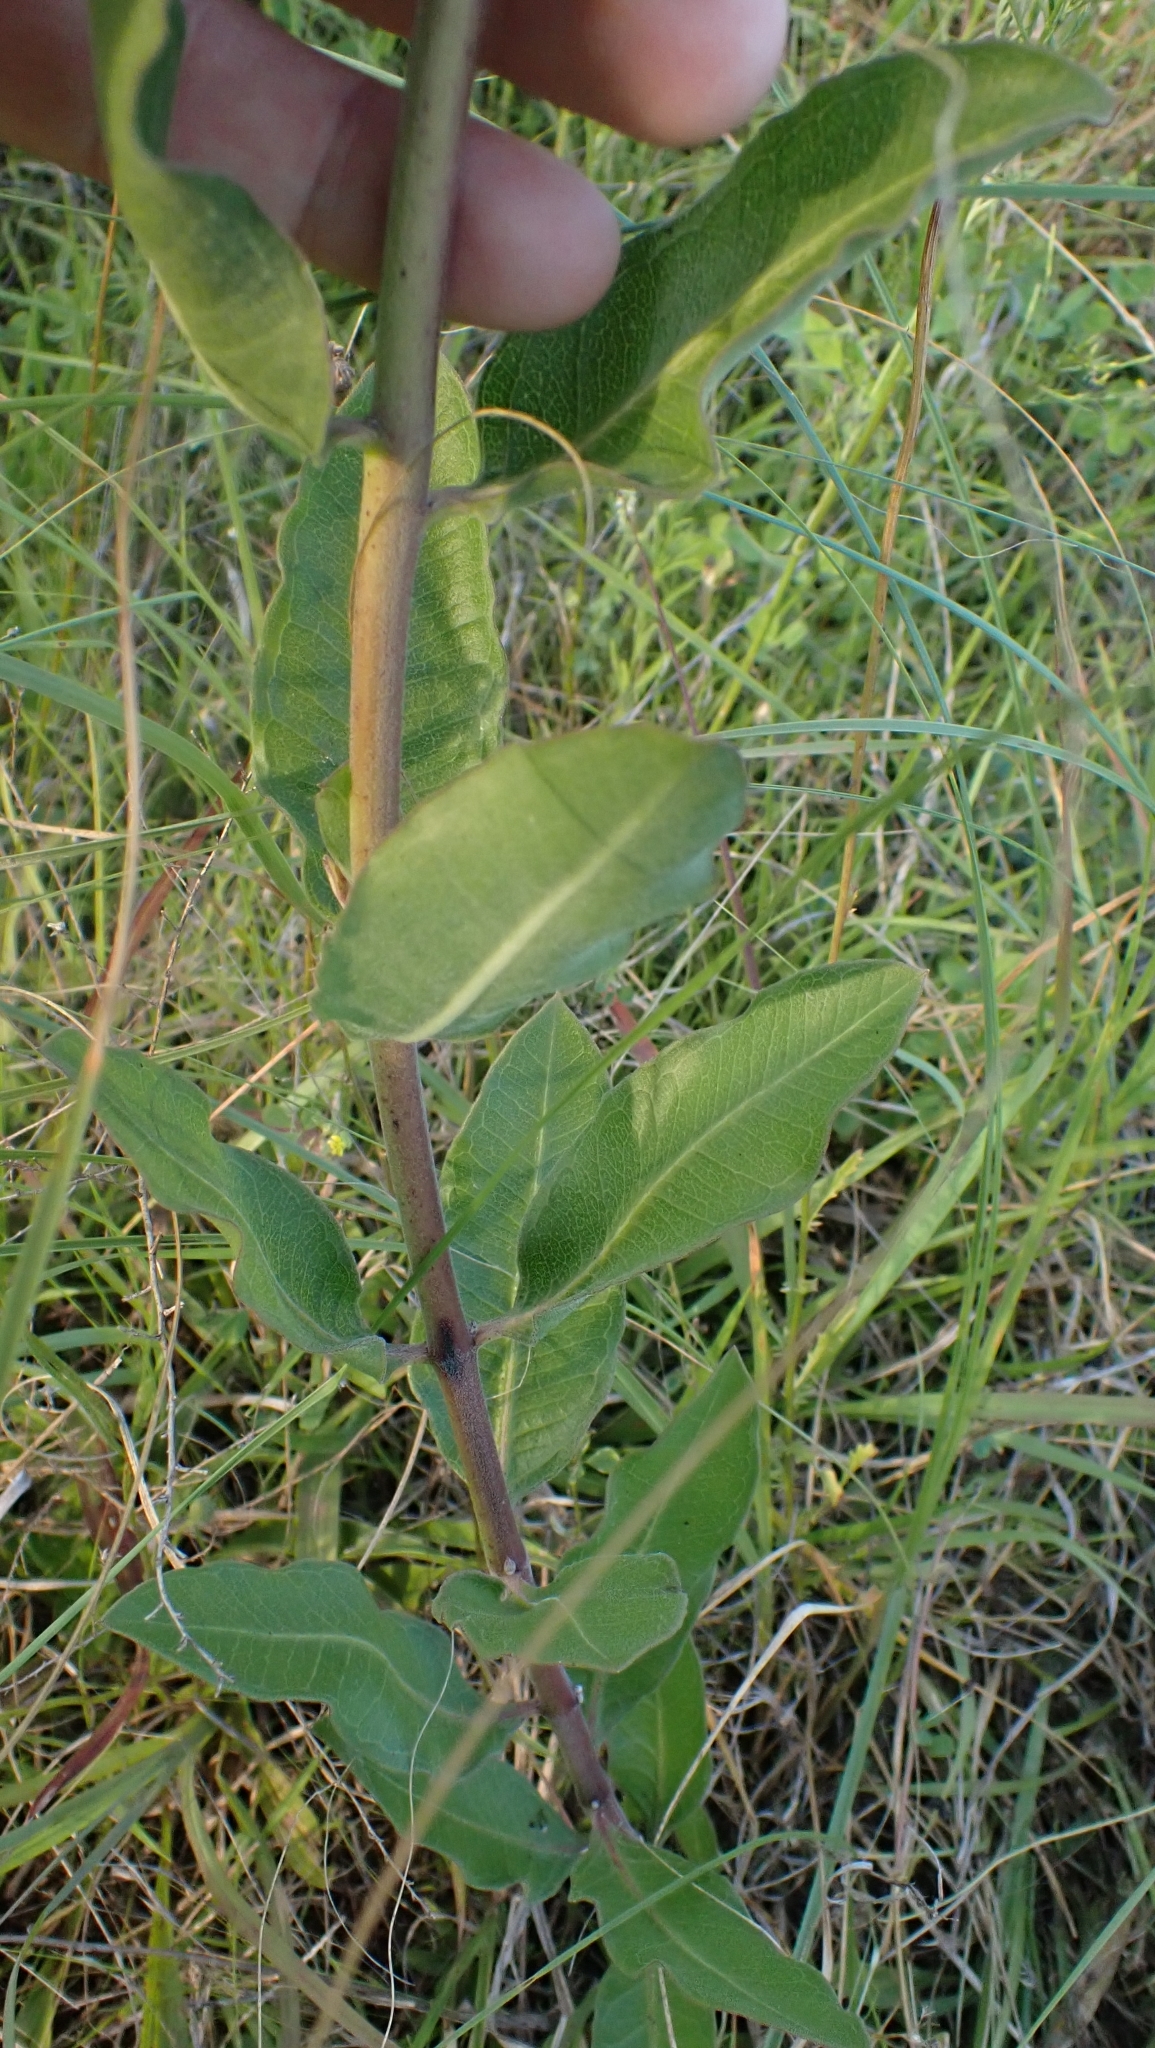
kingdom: Plantae
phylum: Tracheophyta
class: Magnoliopsida
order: Gentianales
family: Apocynaceae
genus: Asclepias
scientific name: Asclepias viridiflora
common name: Green comet milkweed
